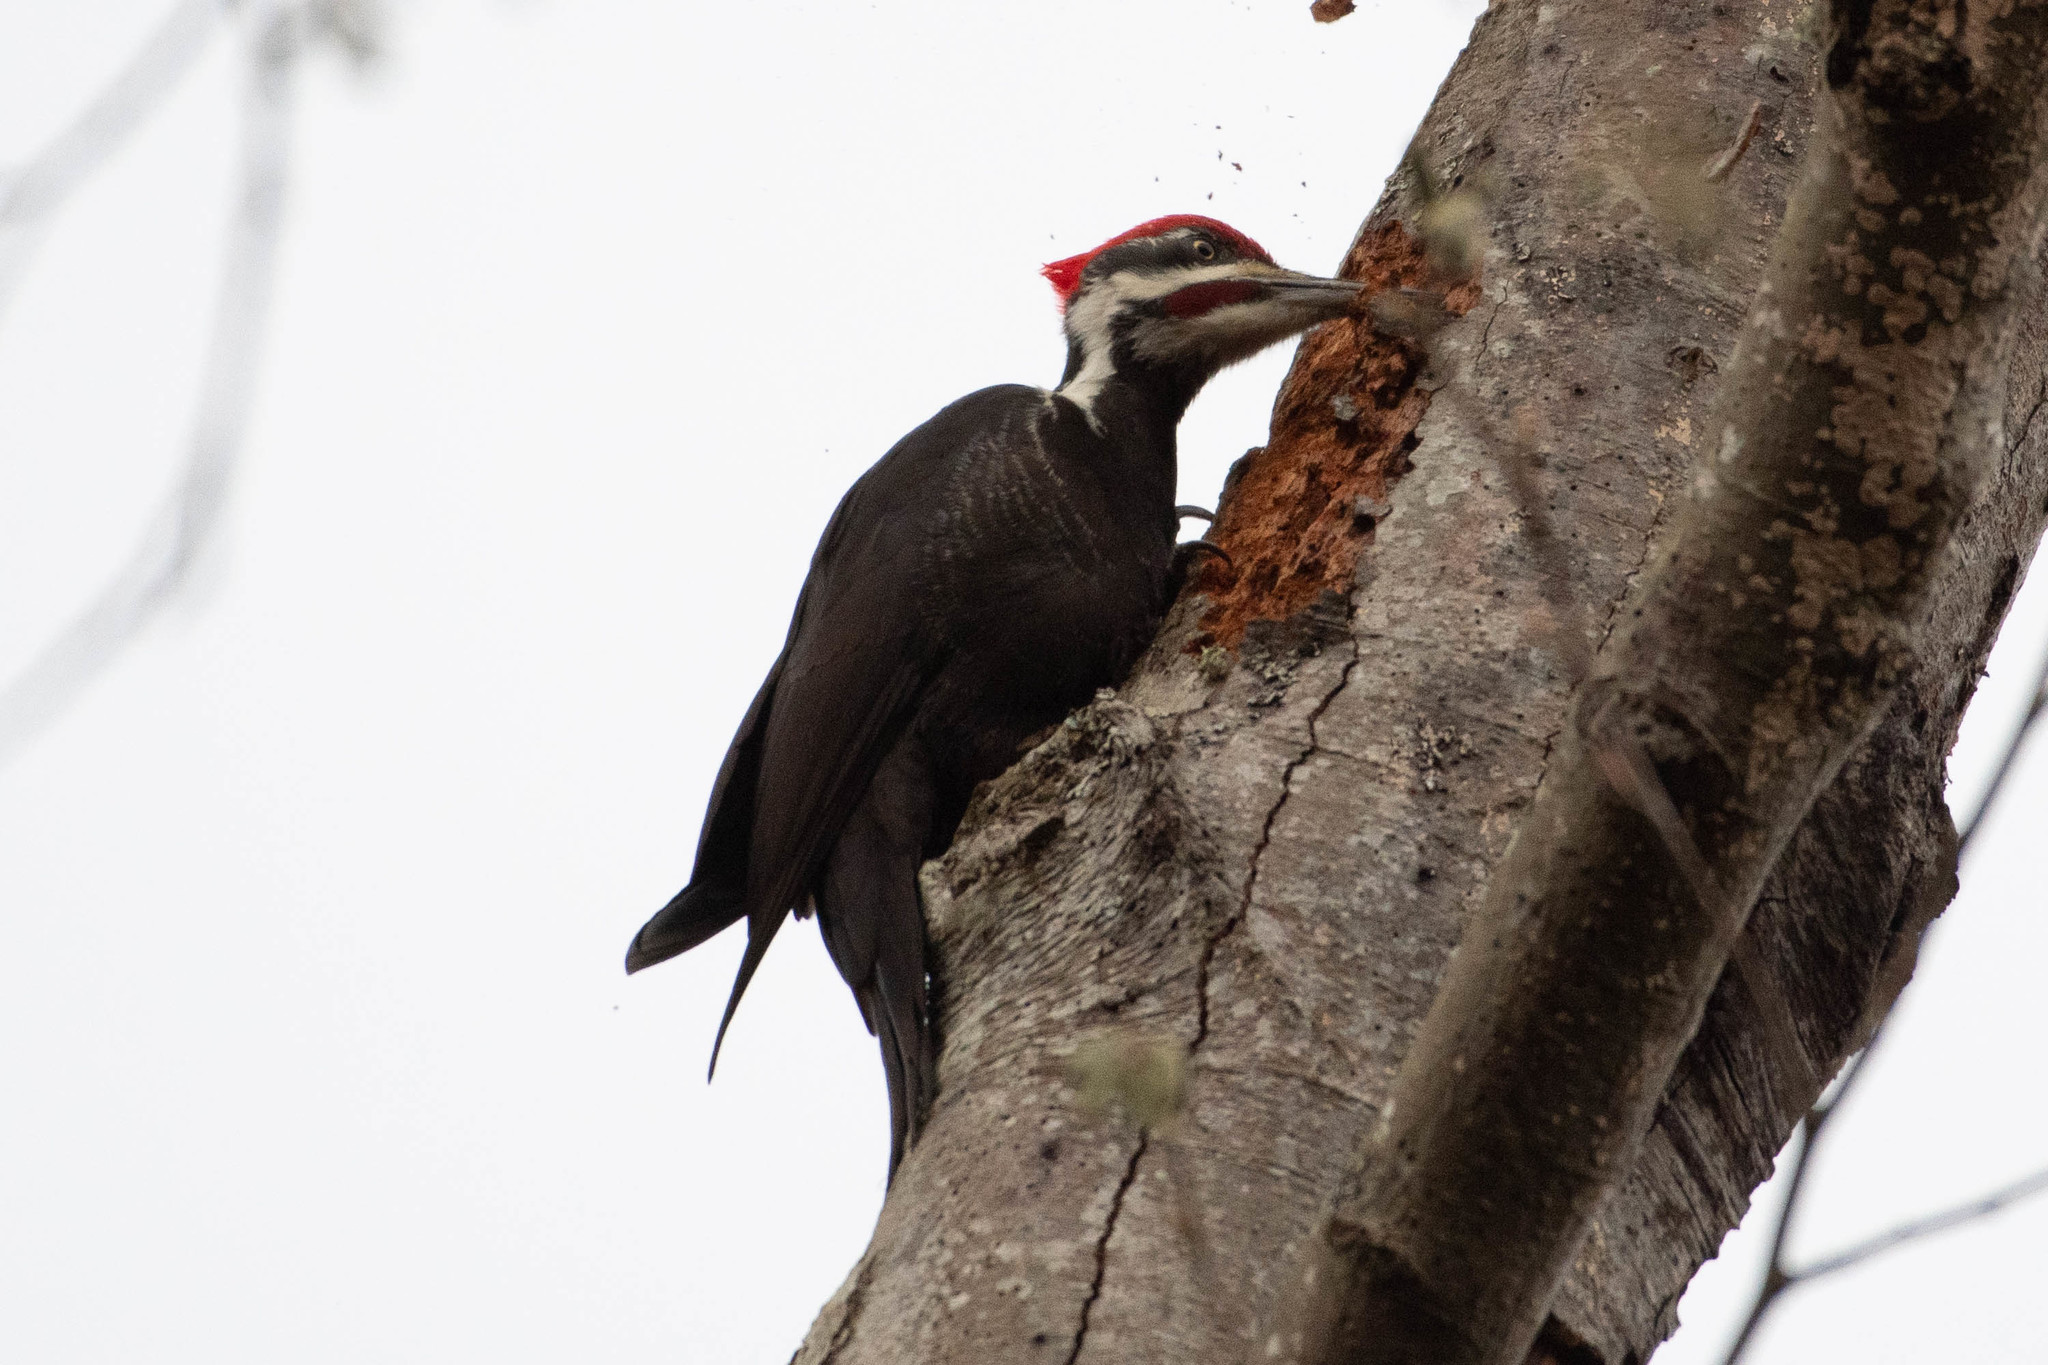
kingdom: Animalia
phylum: Chordata
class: Aves
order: Piciformes
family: Picidae
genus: Dryocopus
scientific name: Dryocopus pileatus
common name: Pileated woodpecker
